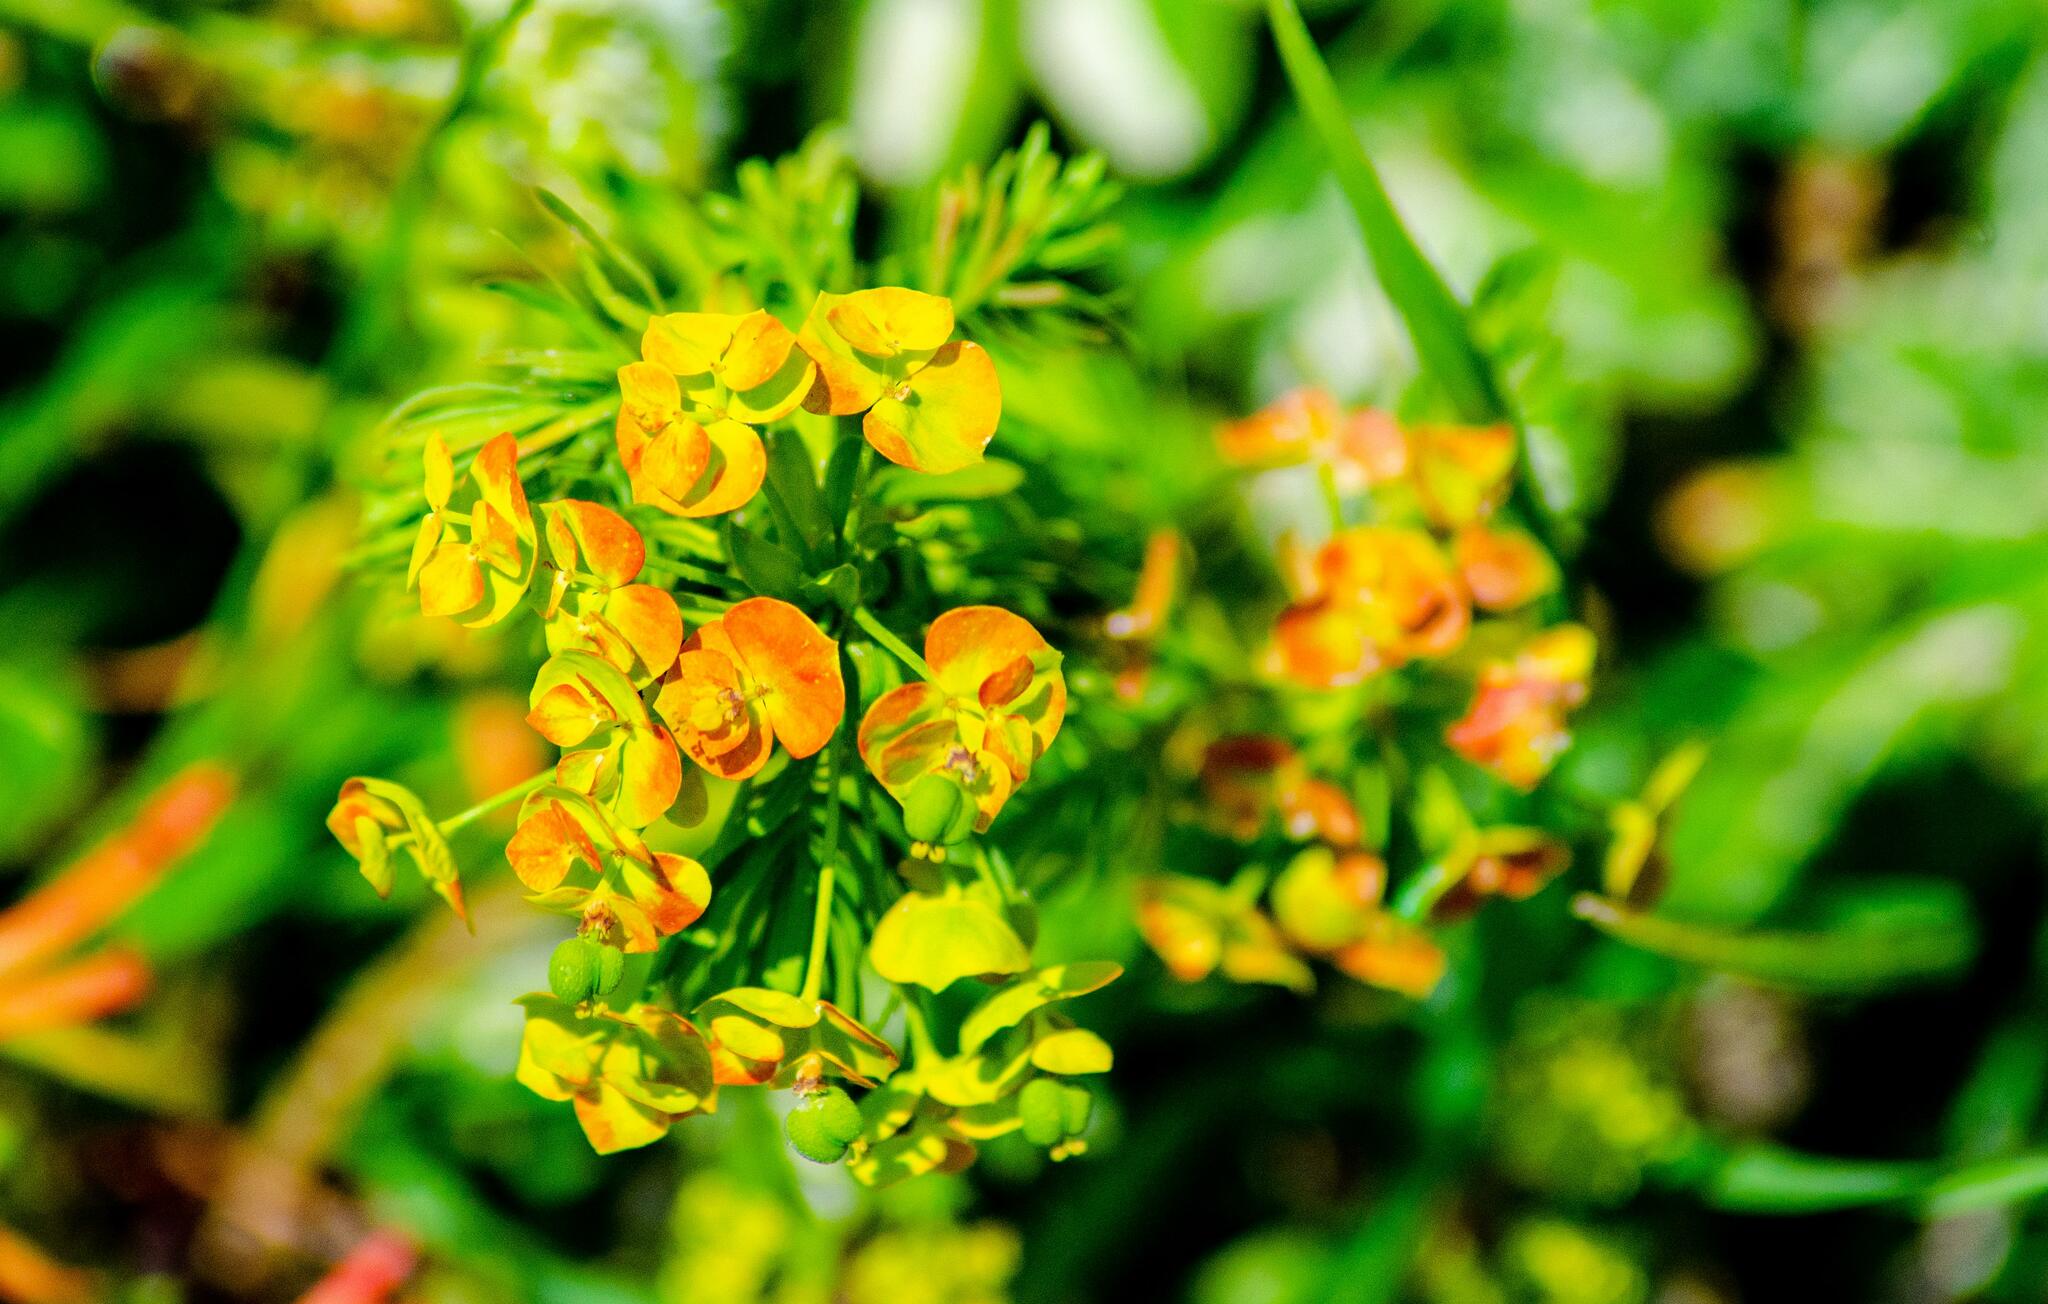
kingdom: Plantae
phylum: Tracheophyta
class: Magnoliopsida
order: Malpighiales
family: Euphorbiaceae
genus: Euphorbia
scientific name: Euphorbia cyparissias
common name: Cypress spurge
